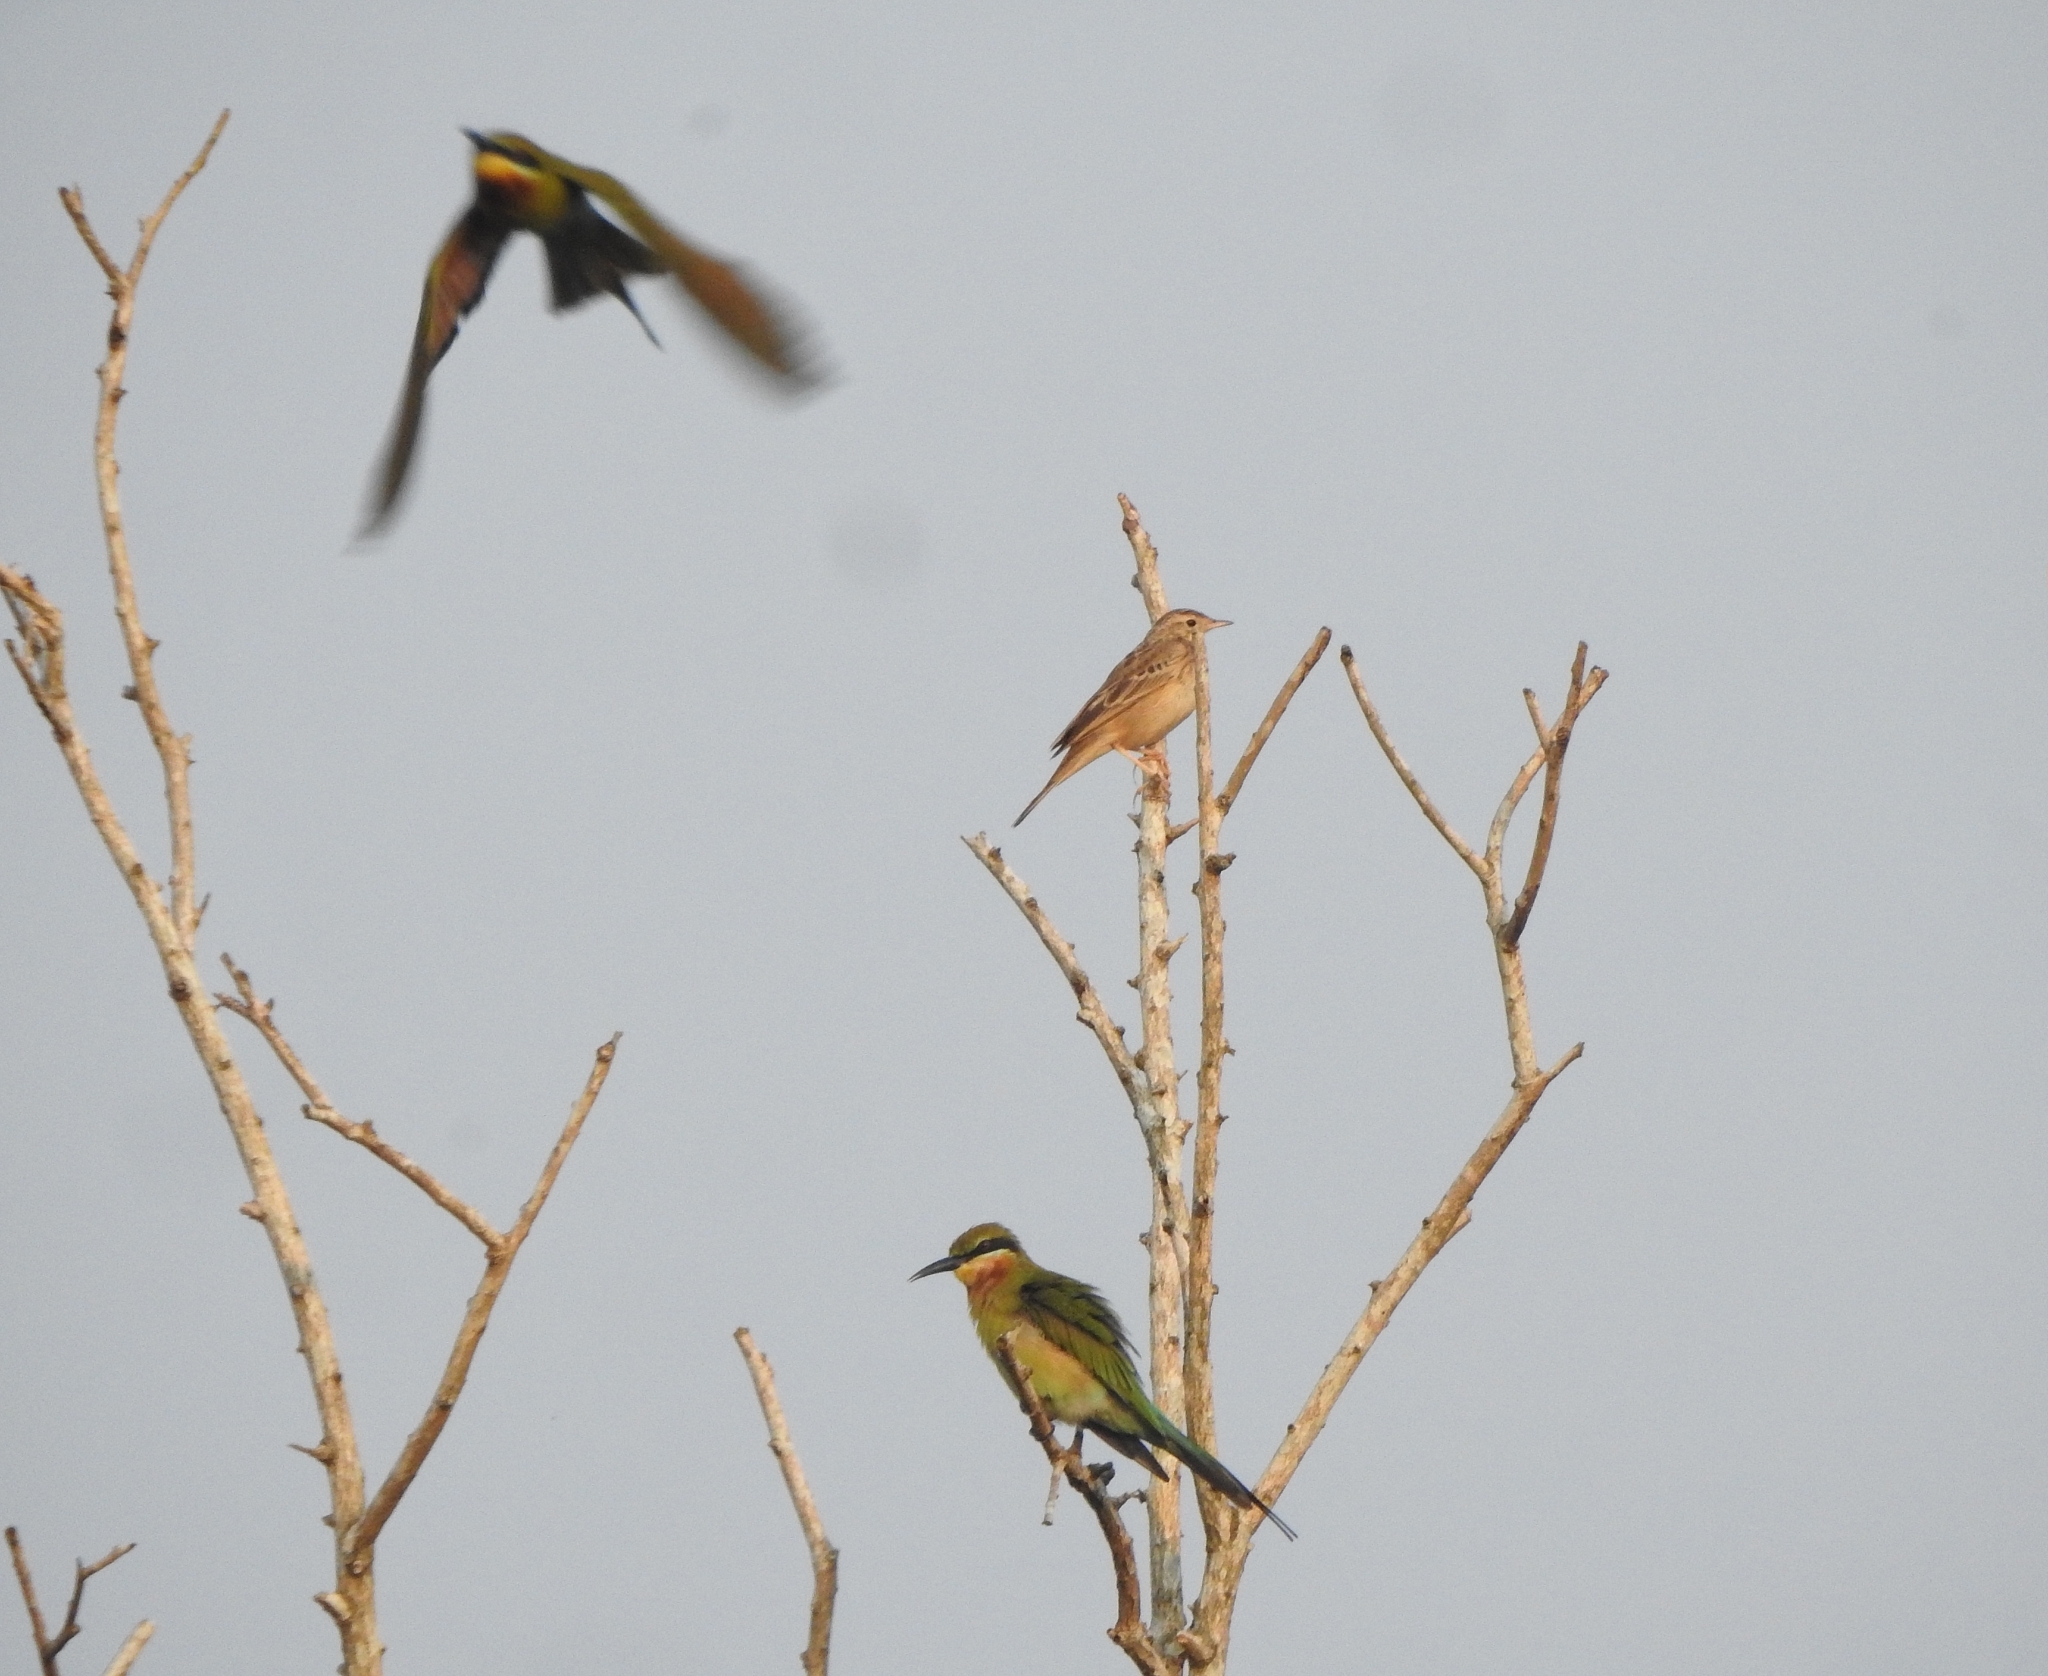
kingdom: Animalia
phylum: Chordata
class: Aves
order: Coraciiformes
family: Meropidae
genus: Merops
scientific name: Merops philippinus
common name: Blue-tailed bee-eater
